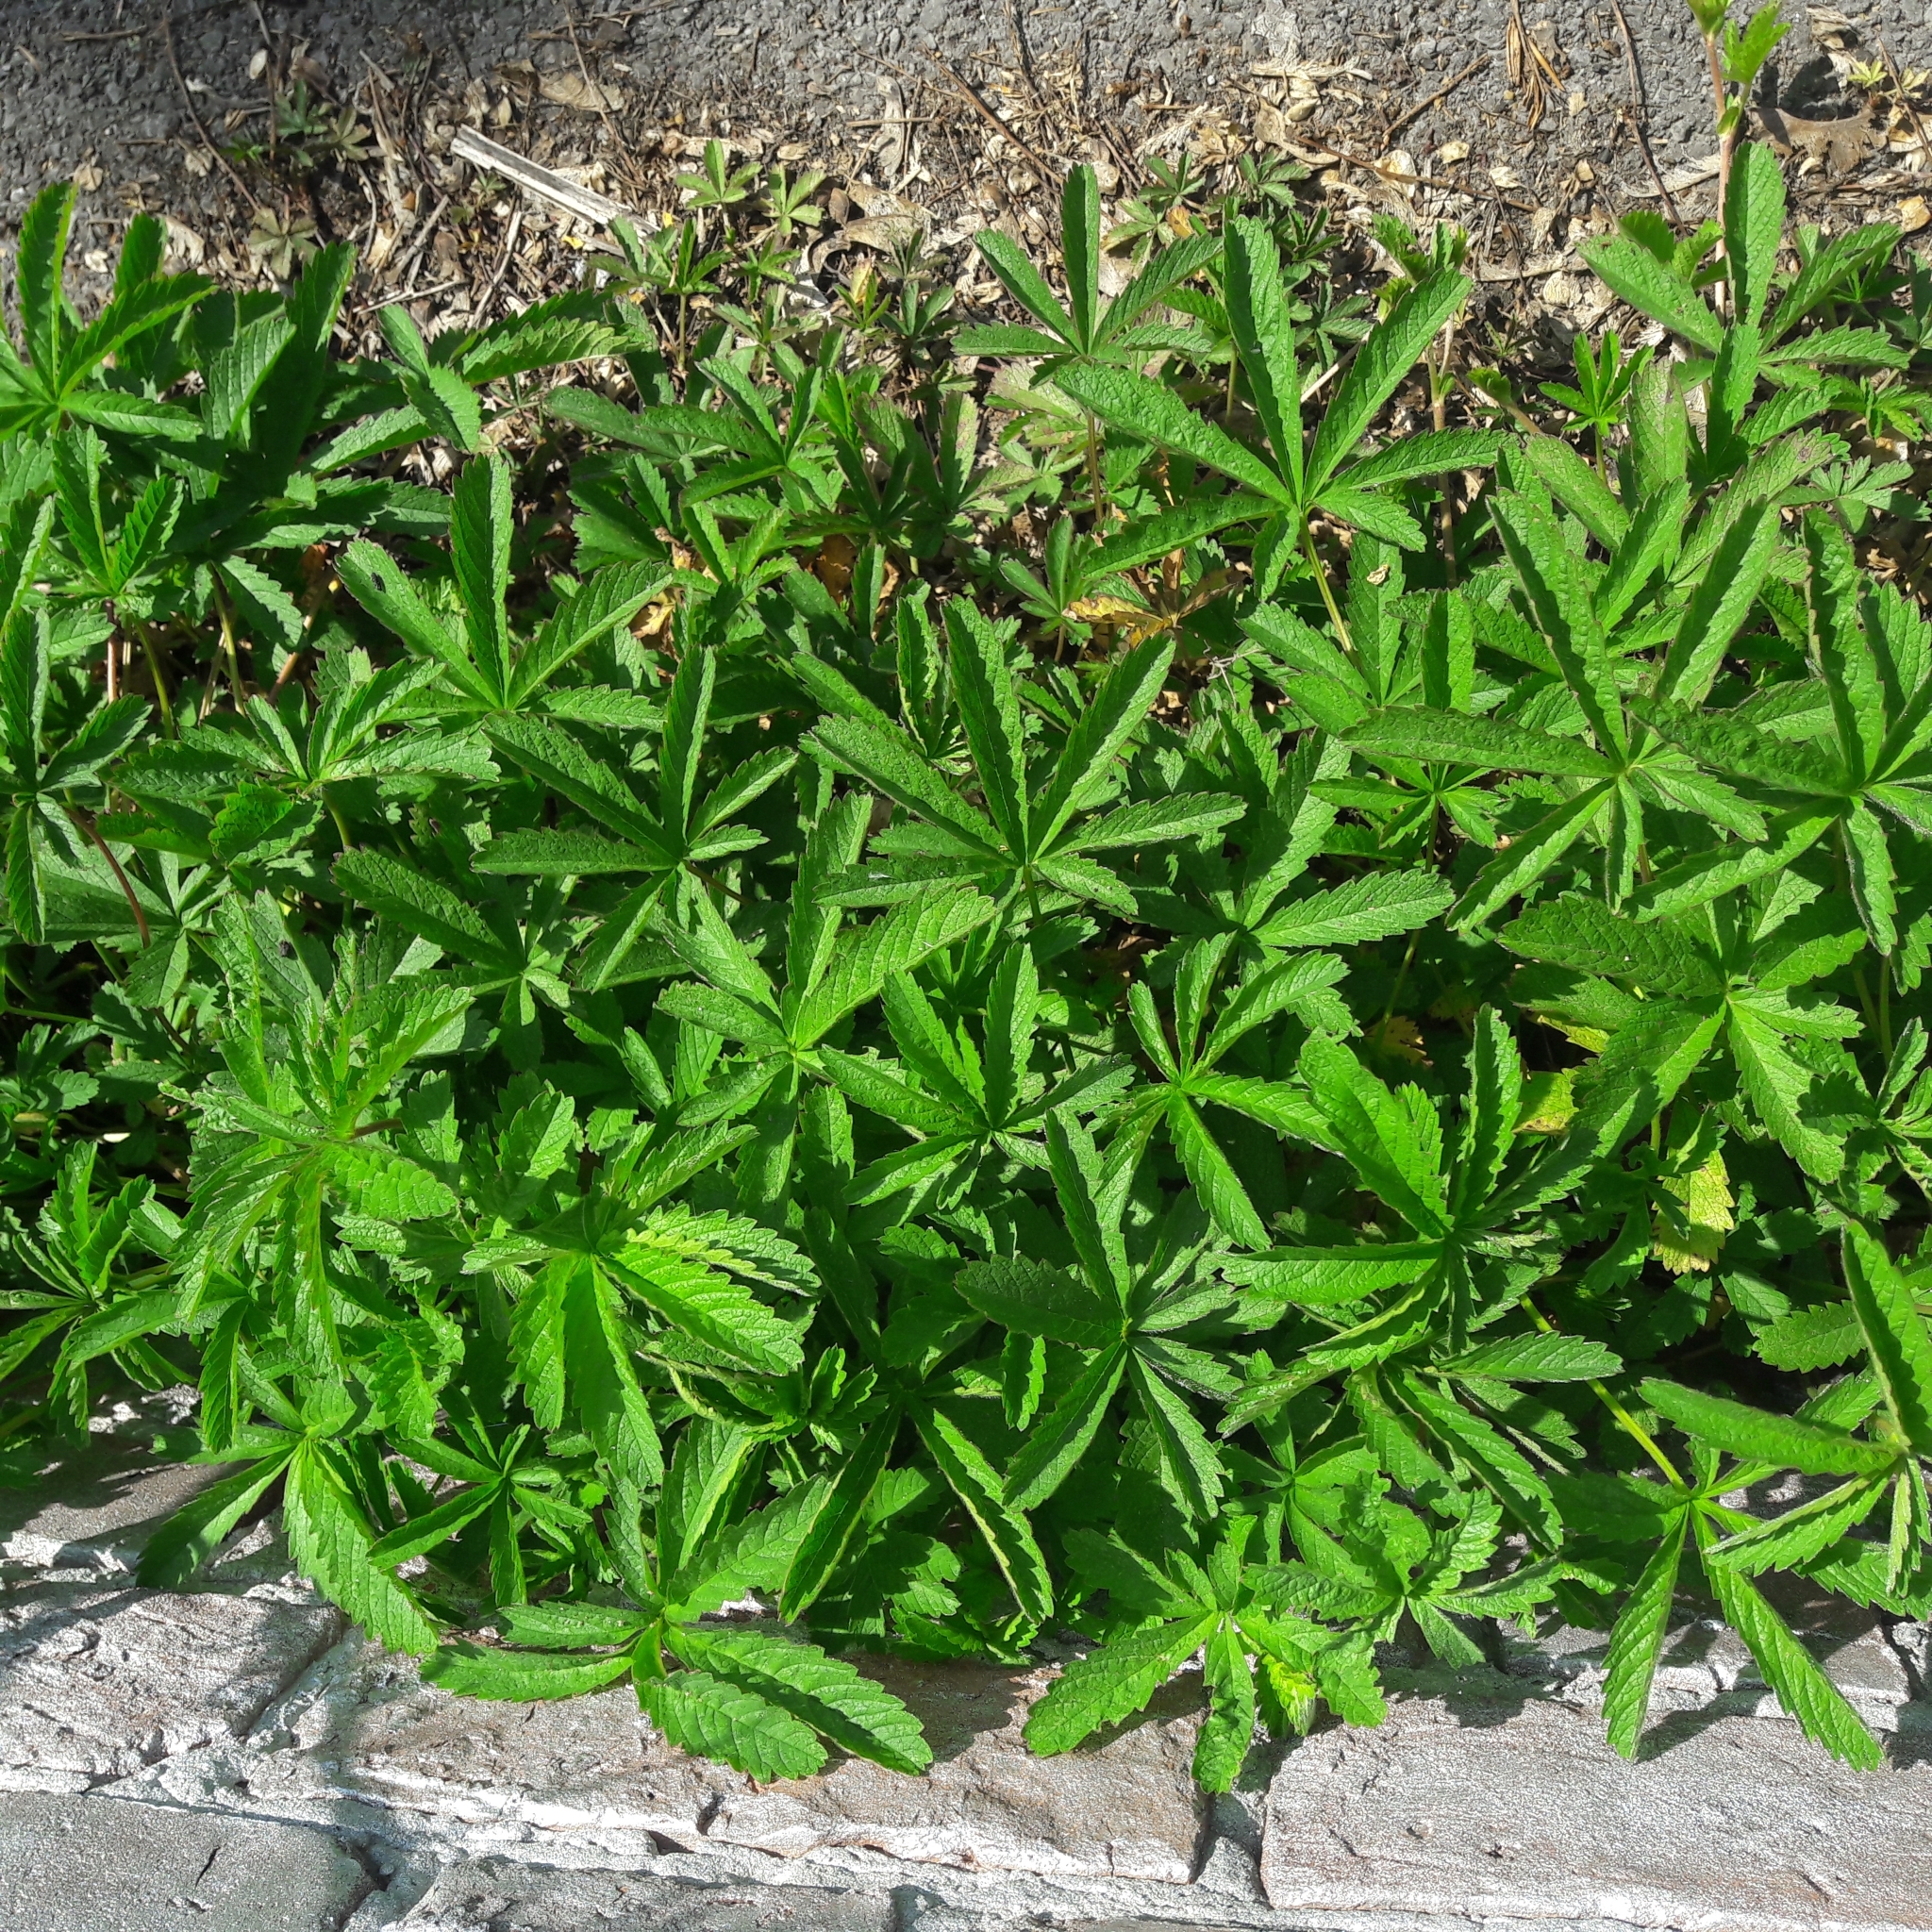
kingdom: Plantae
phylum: Tracheophyta
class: Magnoliopsida
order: Rosales
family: Rosaceae
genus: Potentilla
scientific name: Potentilla reptans
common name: Creeping cinquefoil
